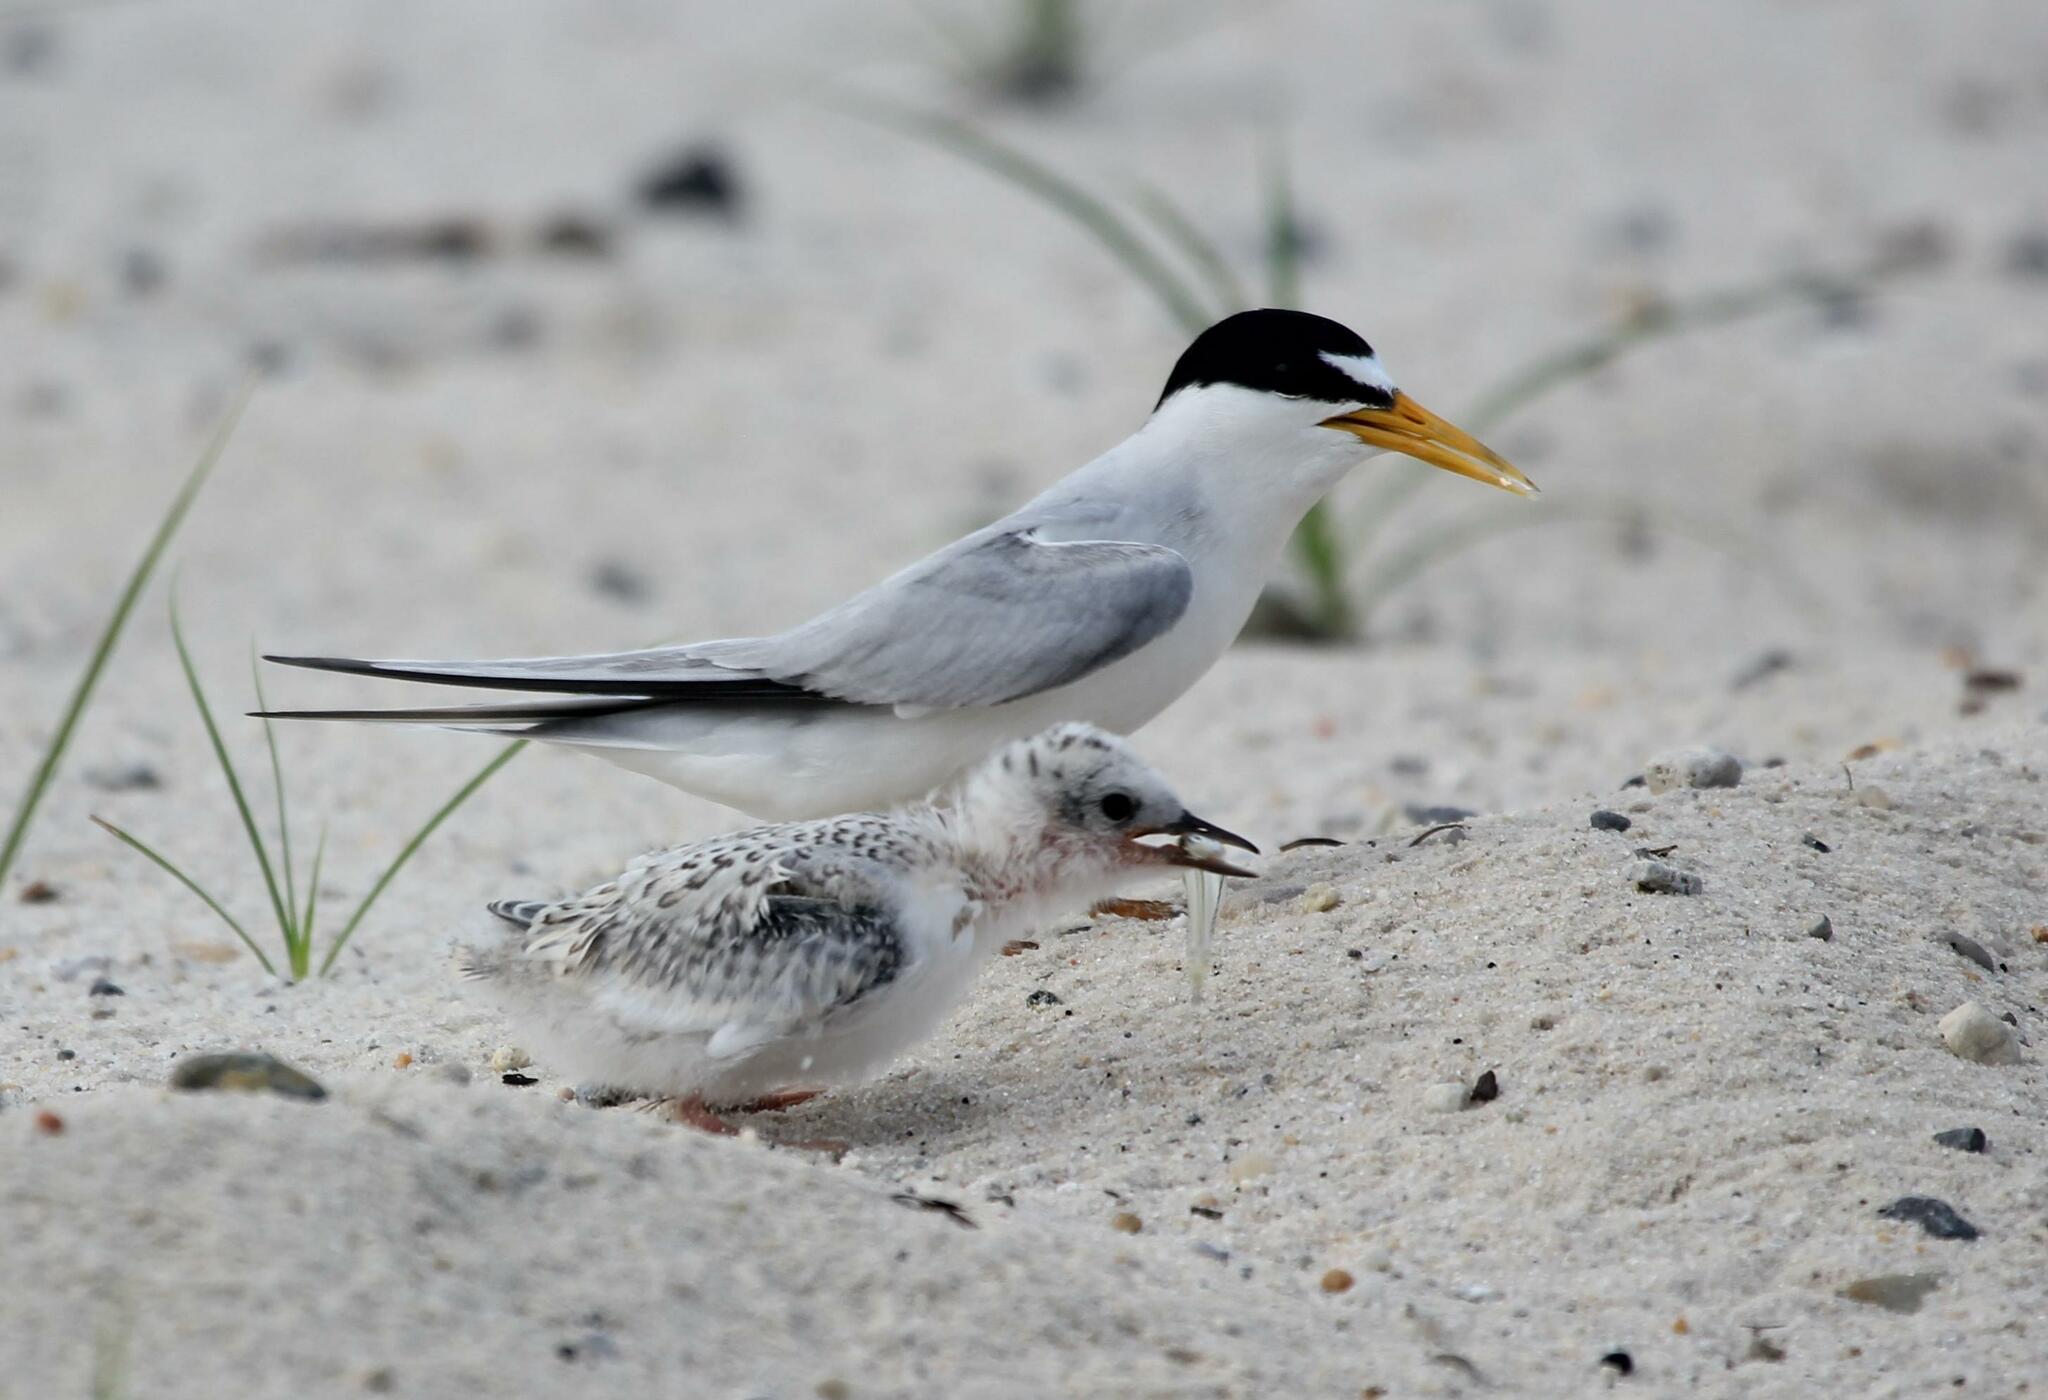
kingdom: Animalia
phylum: Chordata
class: Aves
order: Charadriiformes
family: Laridae
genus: Sternula
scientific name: Sternula antillarum
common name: Least tern
